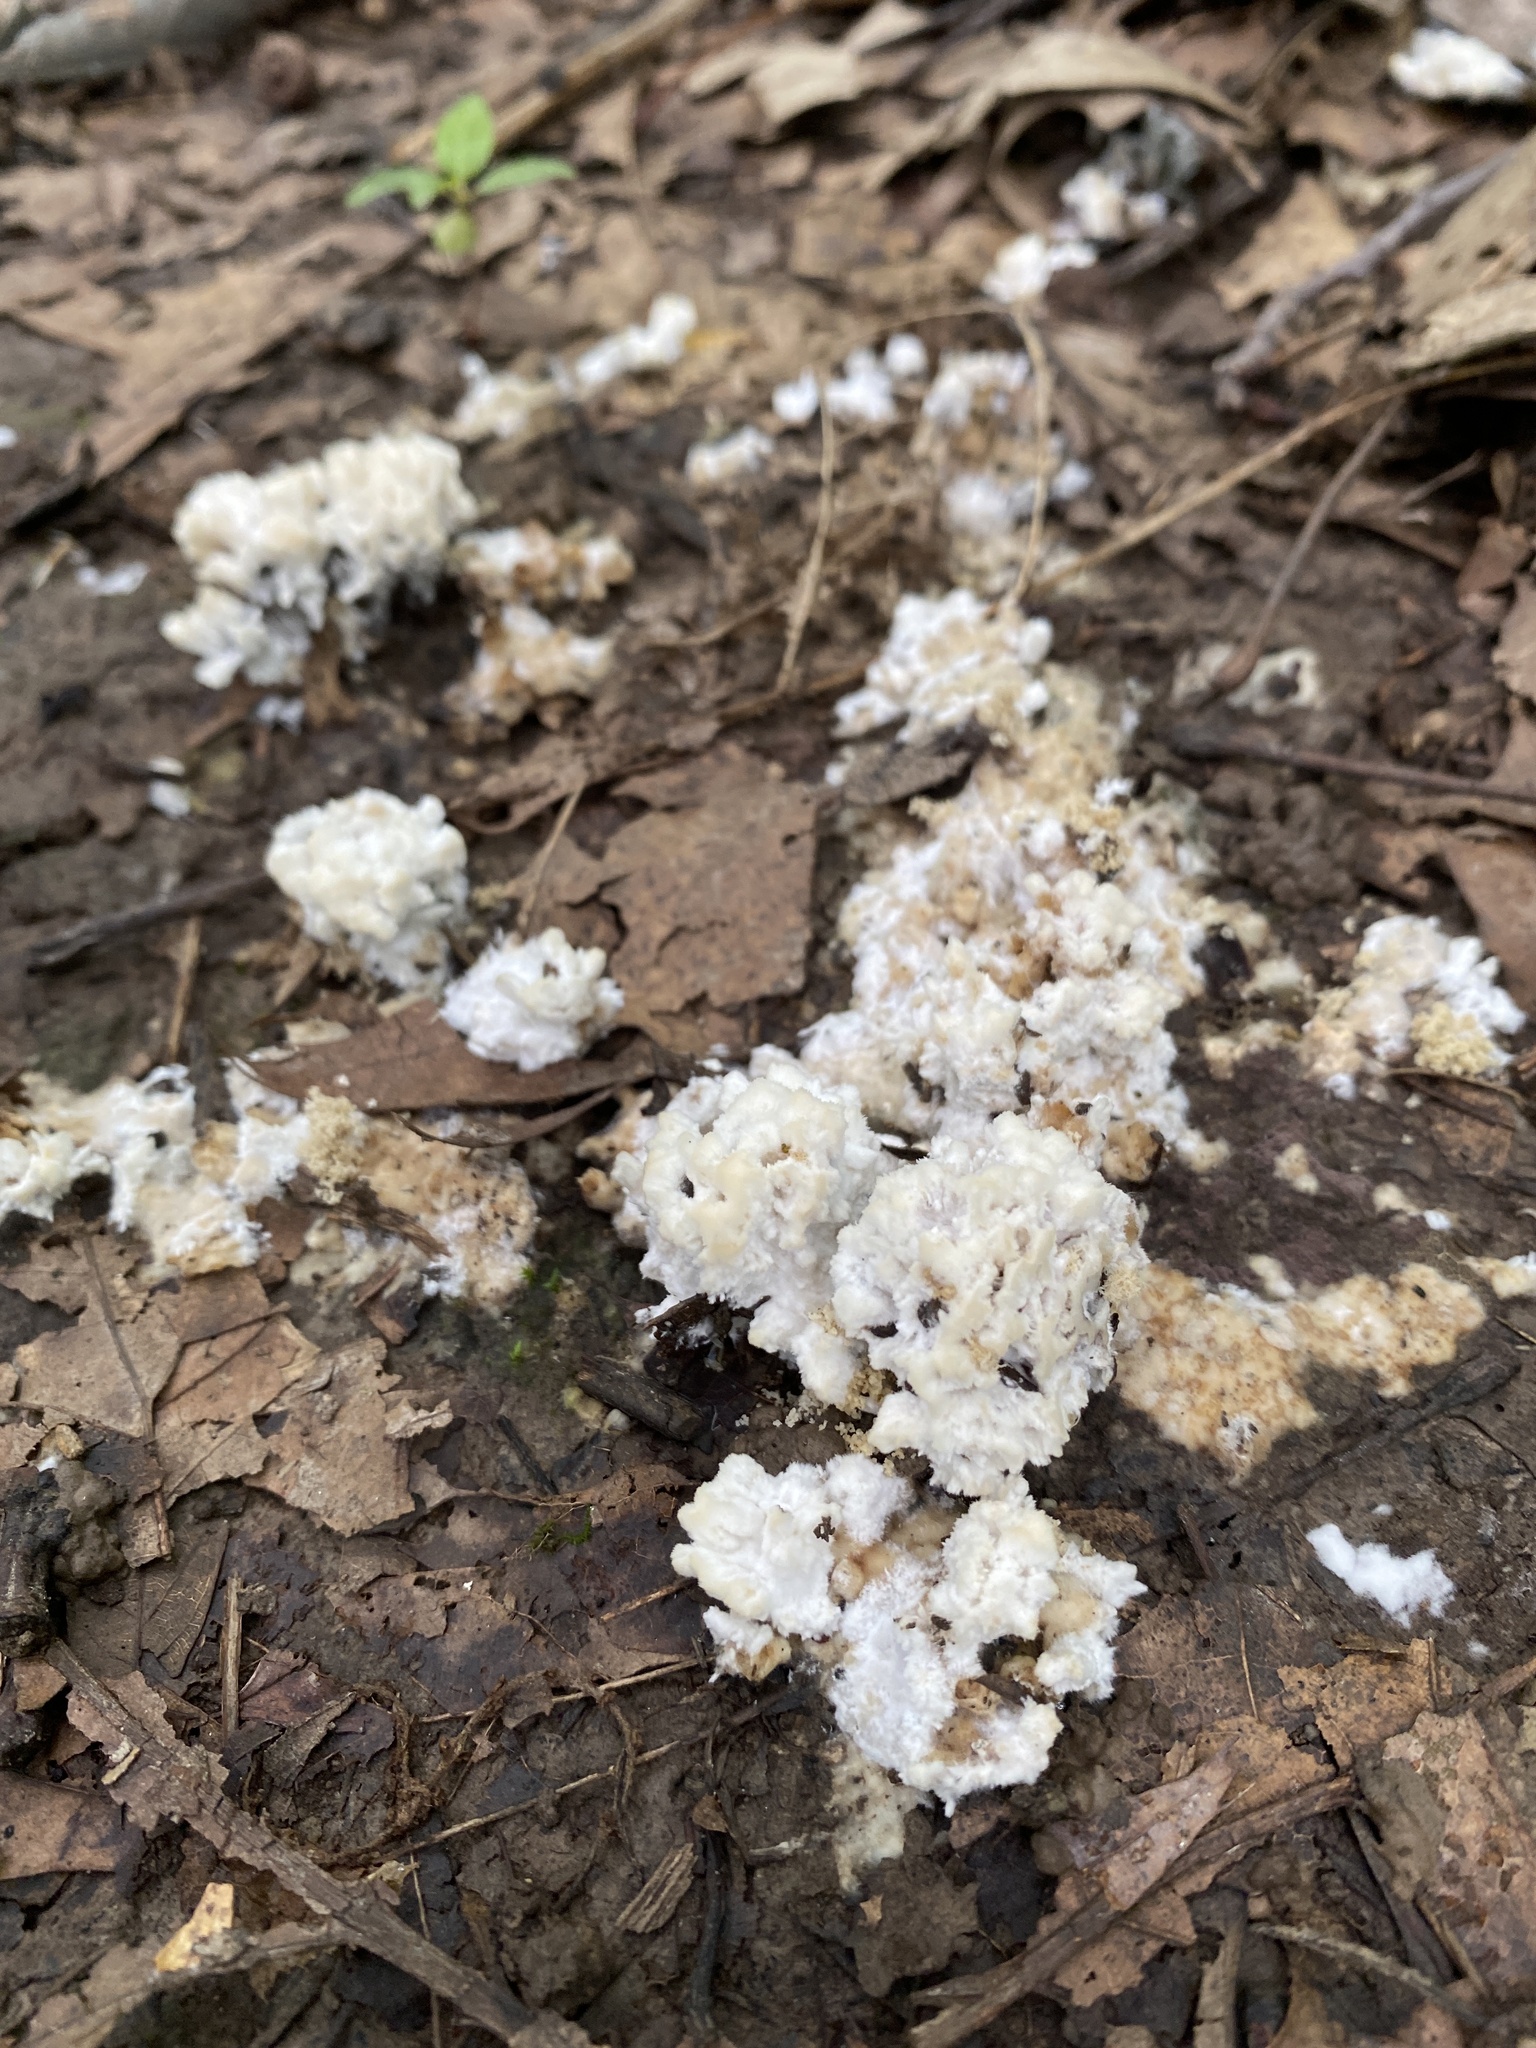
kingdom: Protozoa
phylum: Mycetozoa
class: Myxomycetes
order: Physarales
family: Physaraceae
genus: Didymium
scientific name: Didymium
